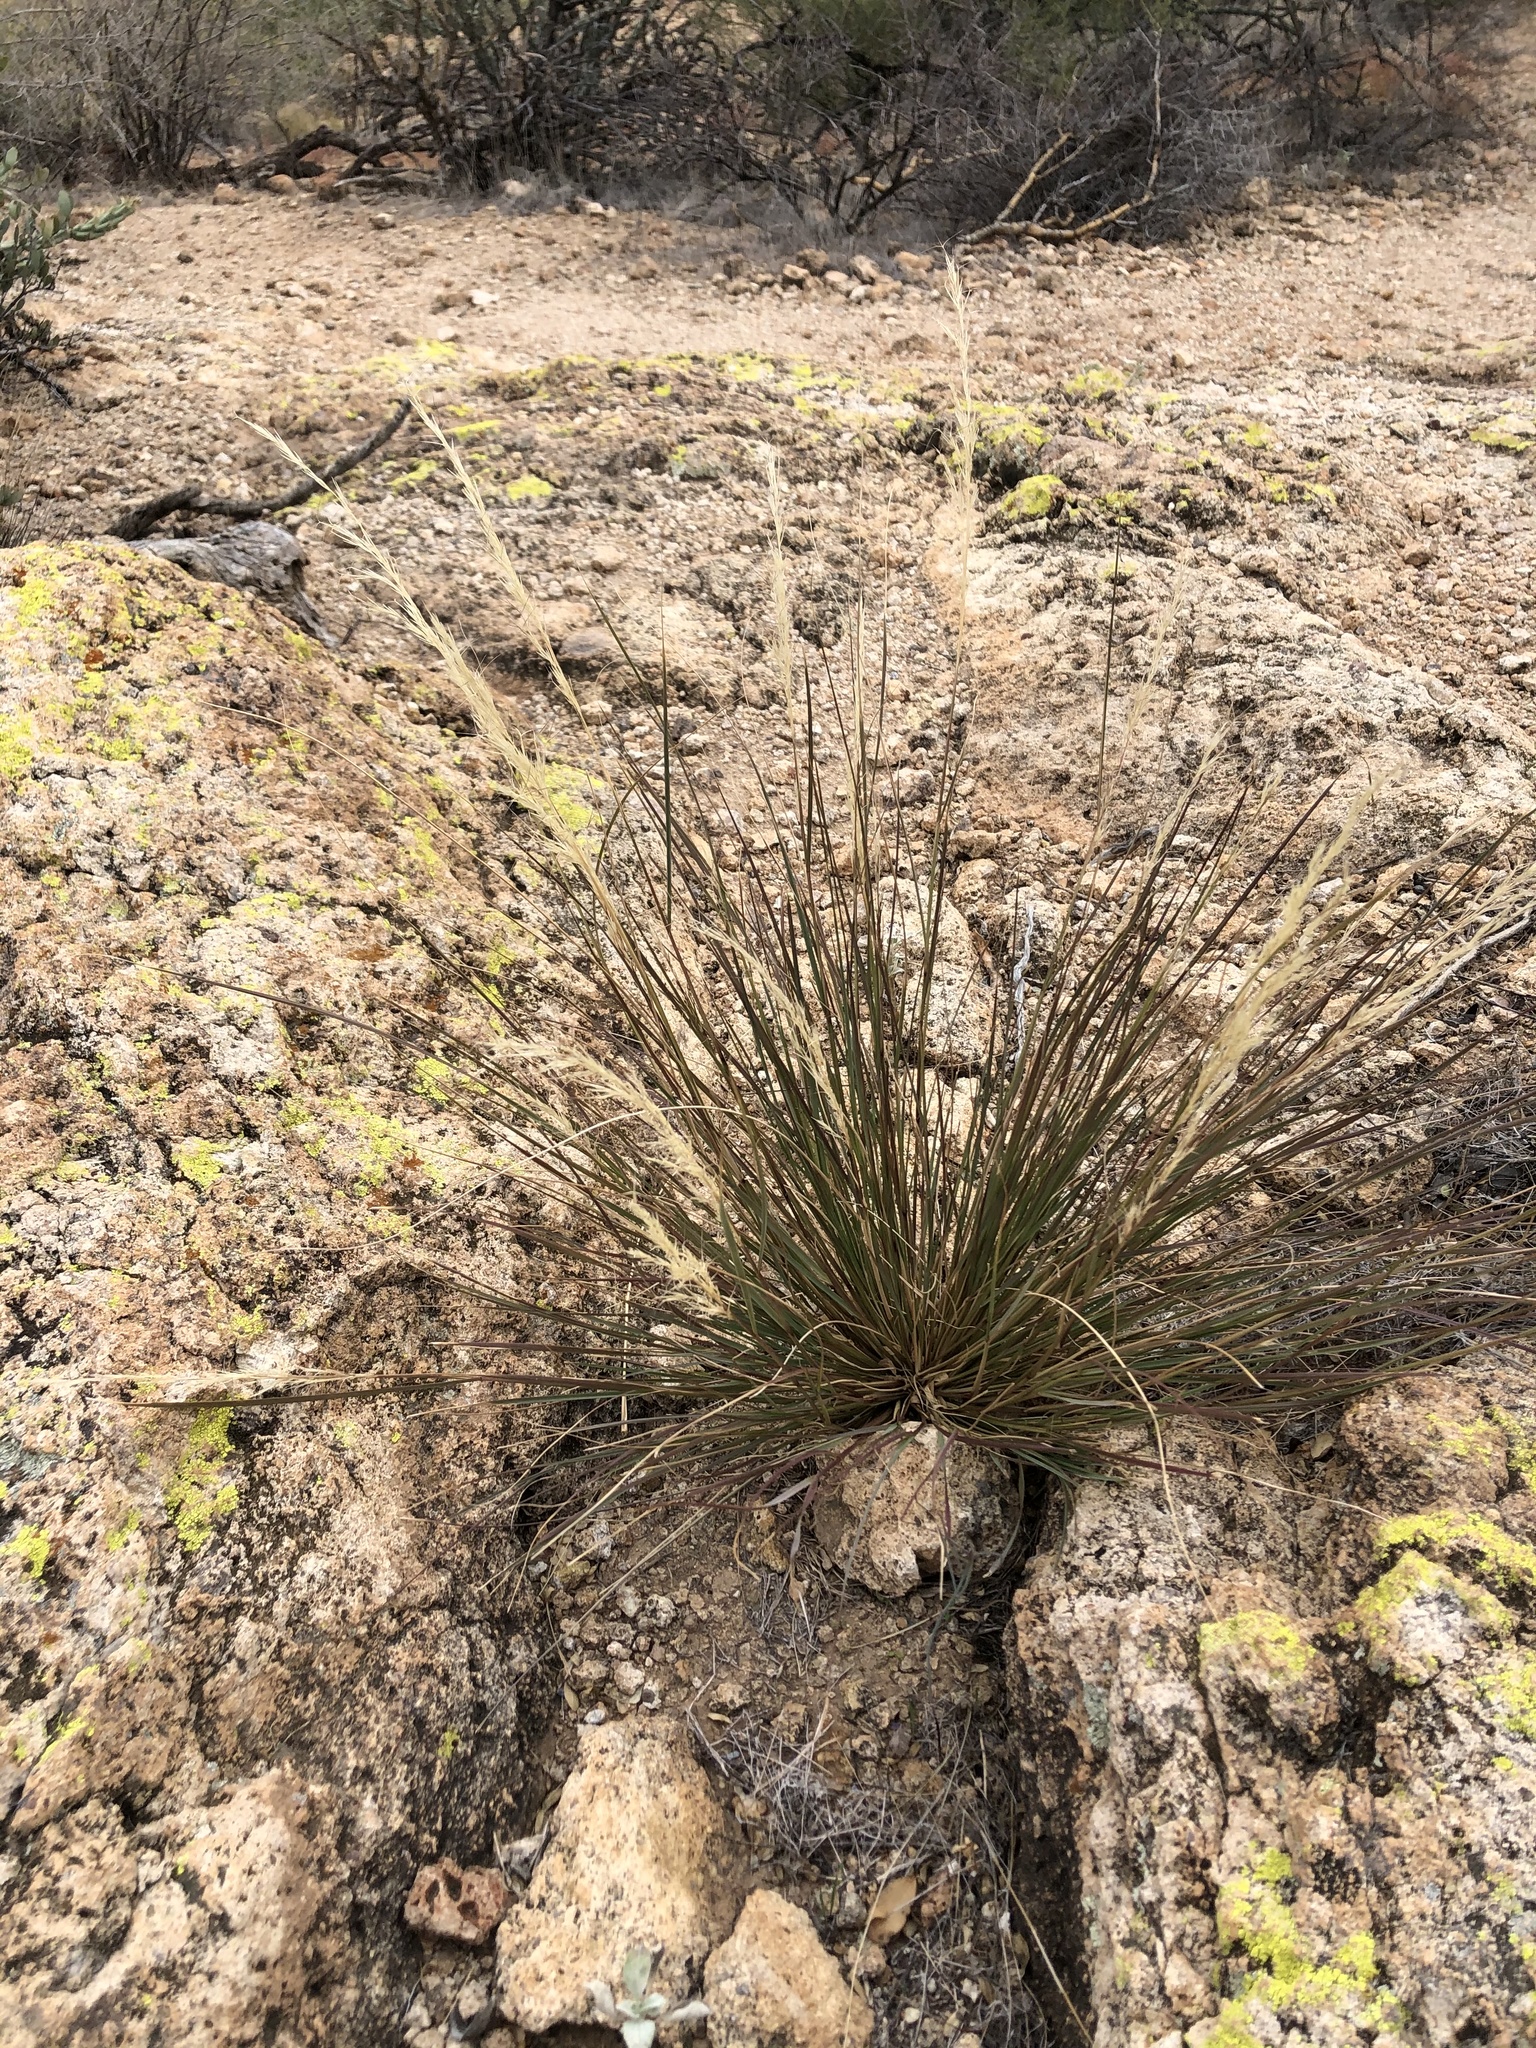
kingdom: Plantae
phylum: Tracheophyta
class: Liliopsida
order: Poales
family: Poaceae
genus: Aristida
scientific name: Aristida adscensionis
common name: Sixweeks threeawn
